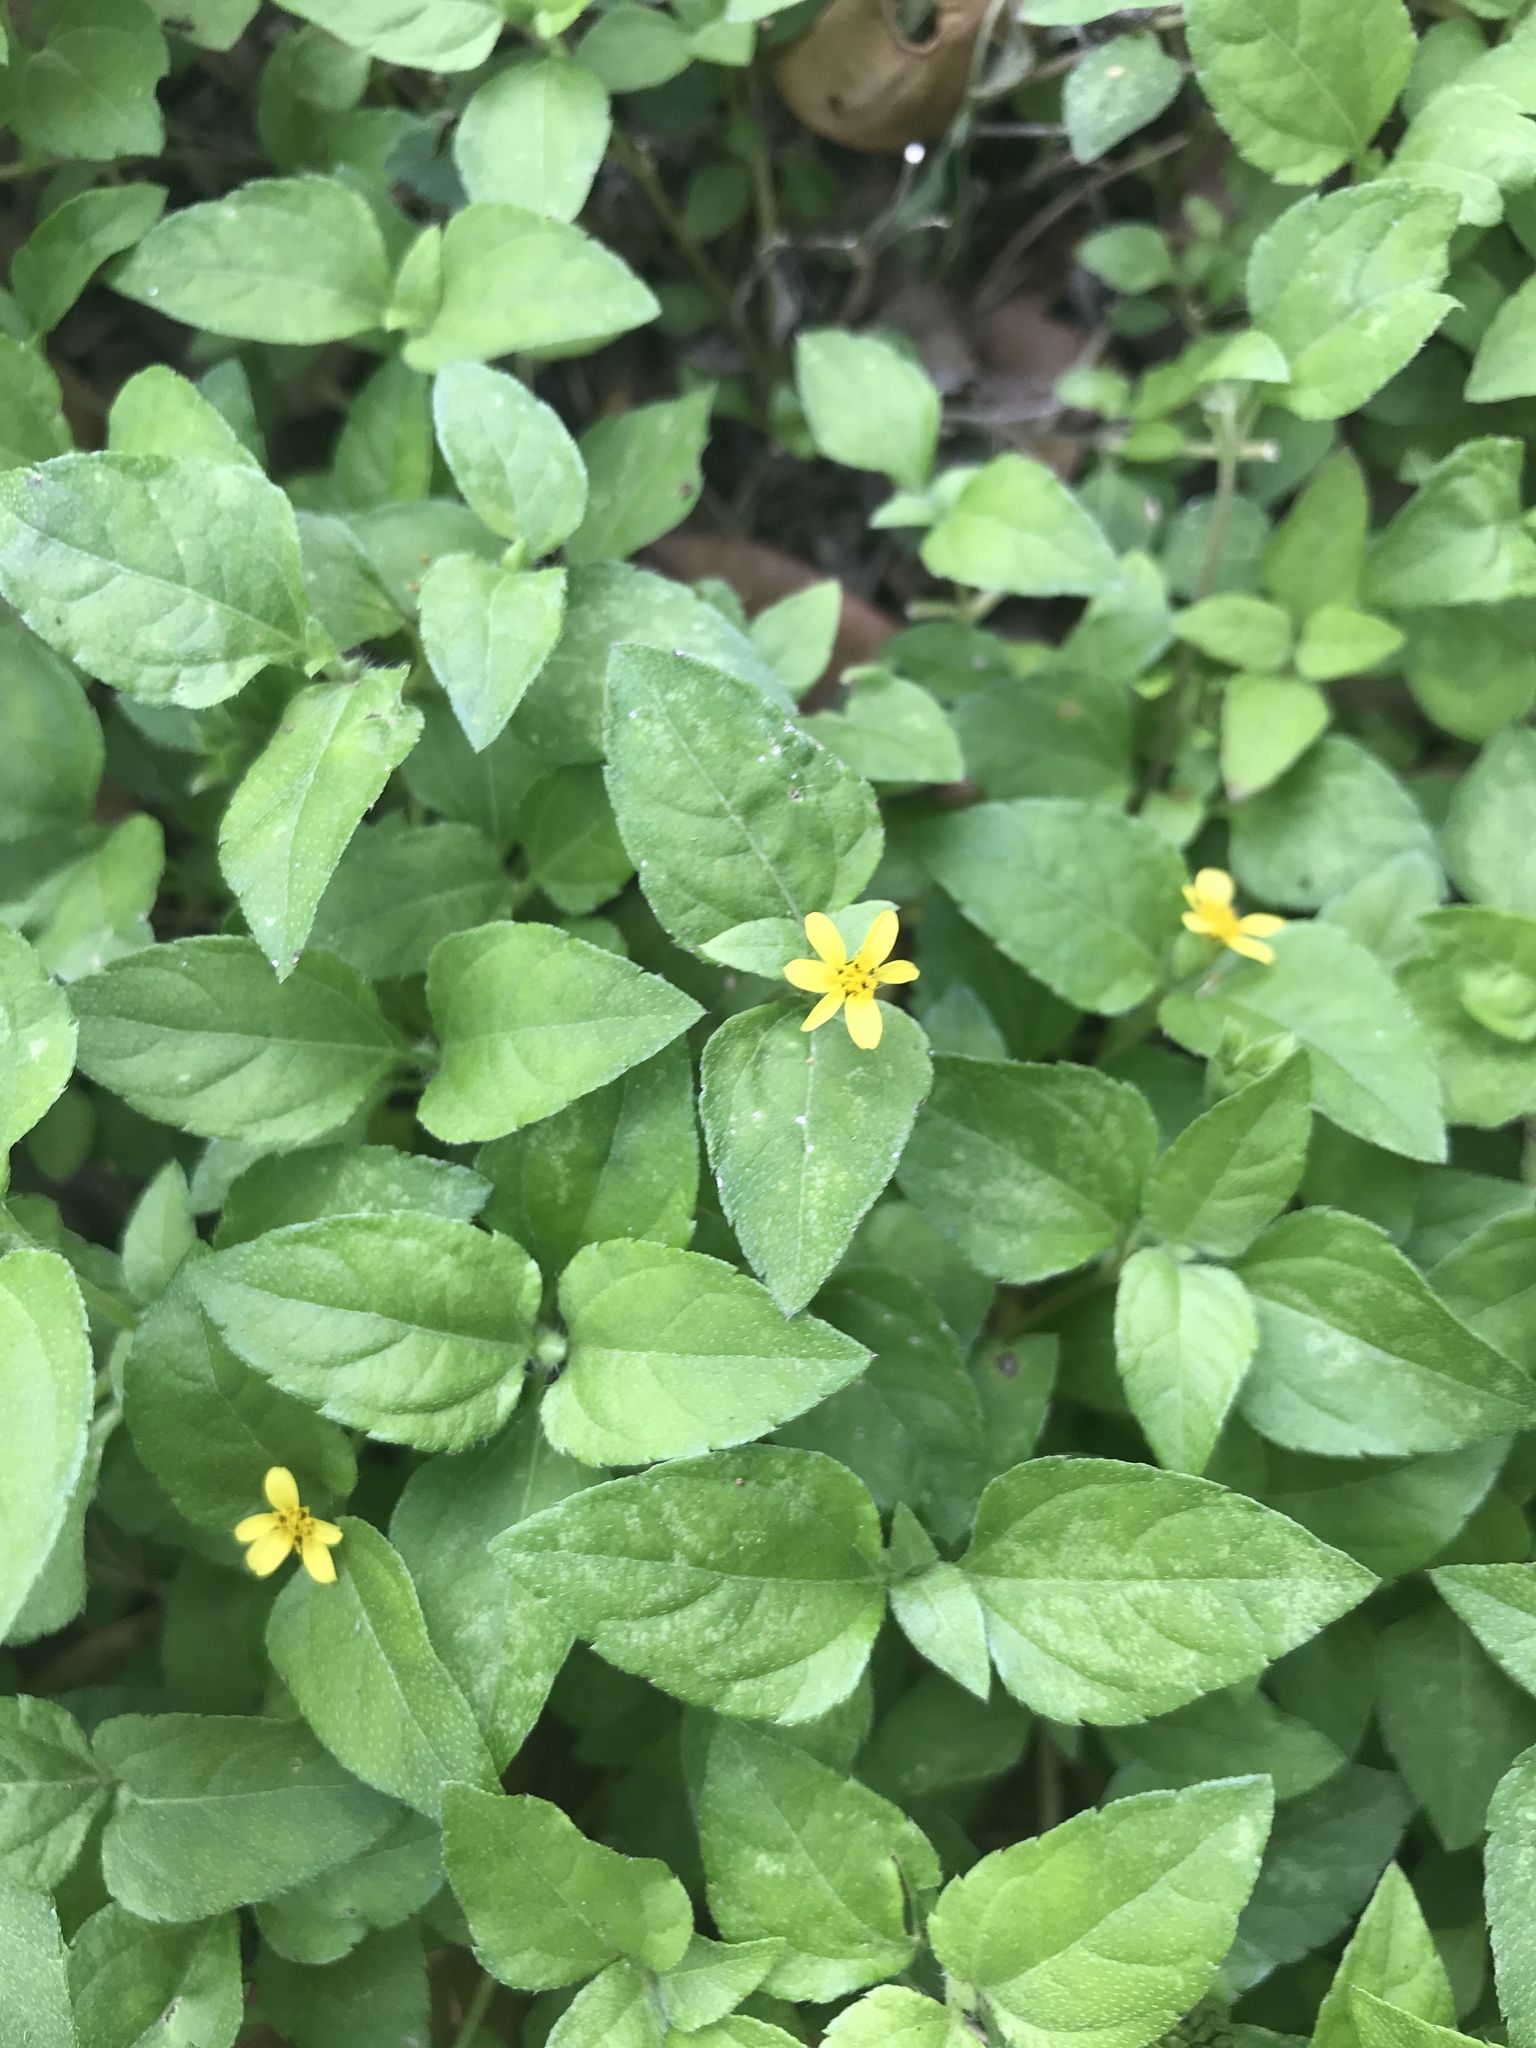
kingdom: Plantae
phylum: Tracheophyta
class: Magnoliopsida
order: Asterales
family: Asteraceae
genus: Calyptocarpus
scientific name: Calyptocarpus vialis
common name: Straggler daisy
